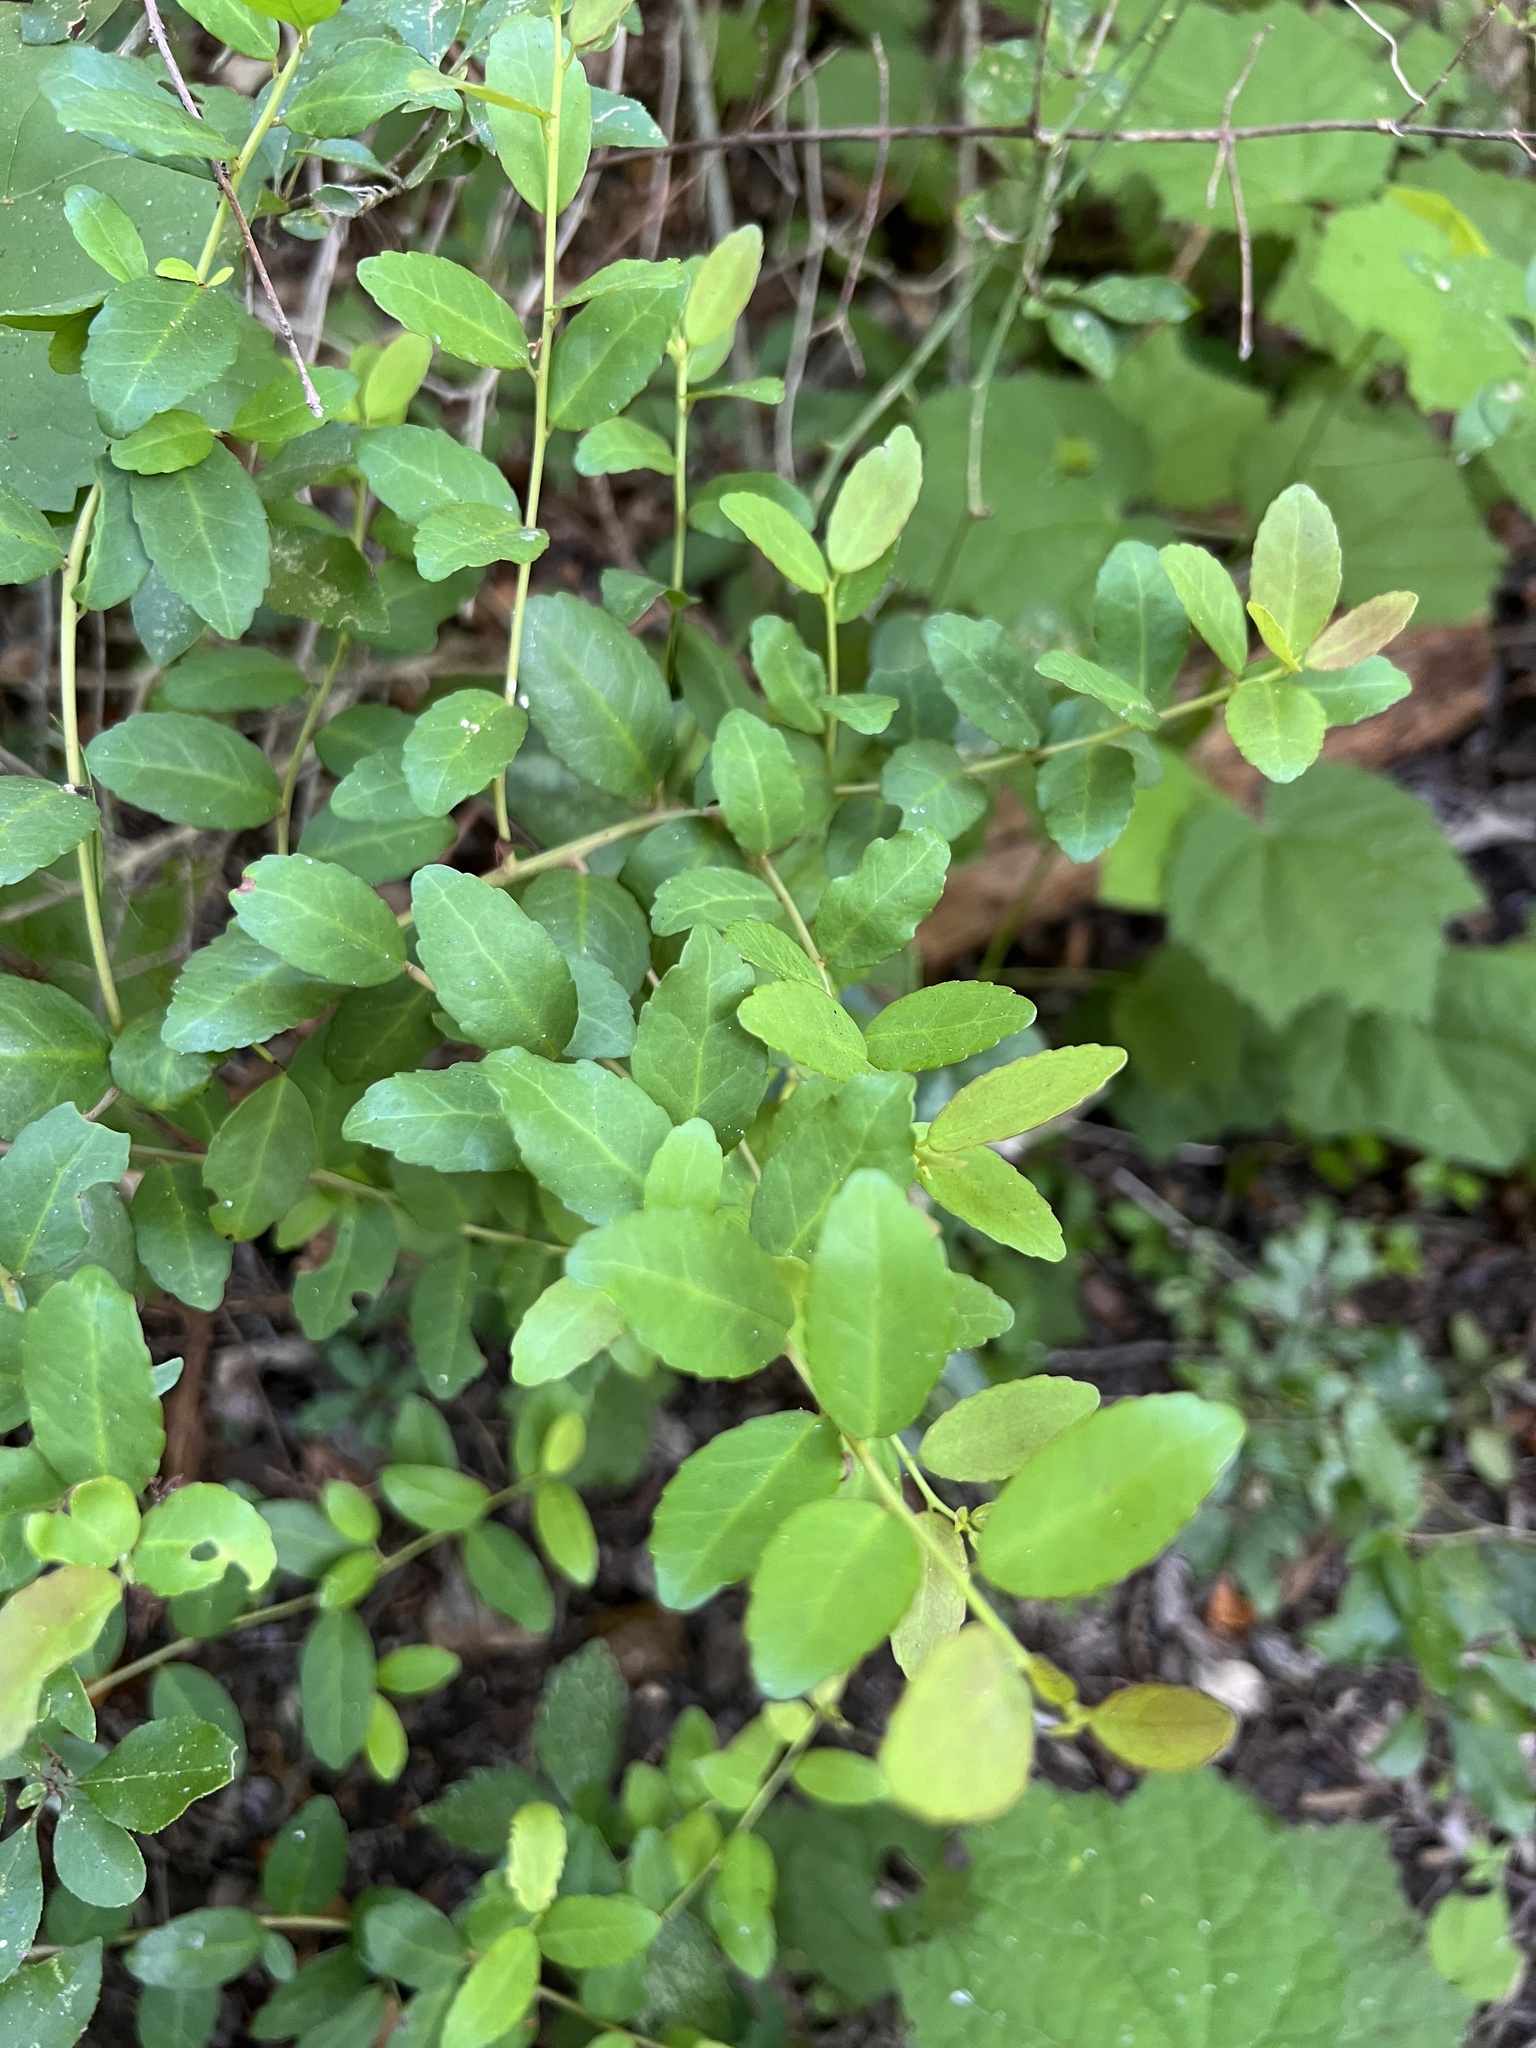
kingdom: Plantae
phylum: Tracheophyta
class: Magnoliopsida
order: Aquifoliales
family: Aquifoliaceae
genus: Ilex
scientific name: Ilex vomitoria
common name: Yaupon holly
